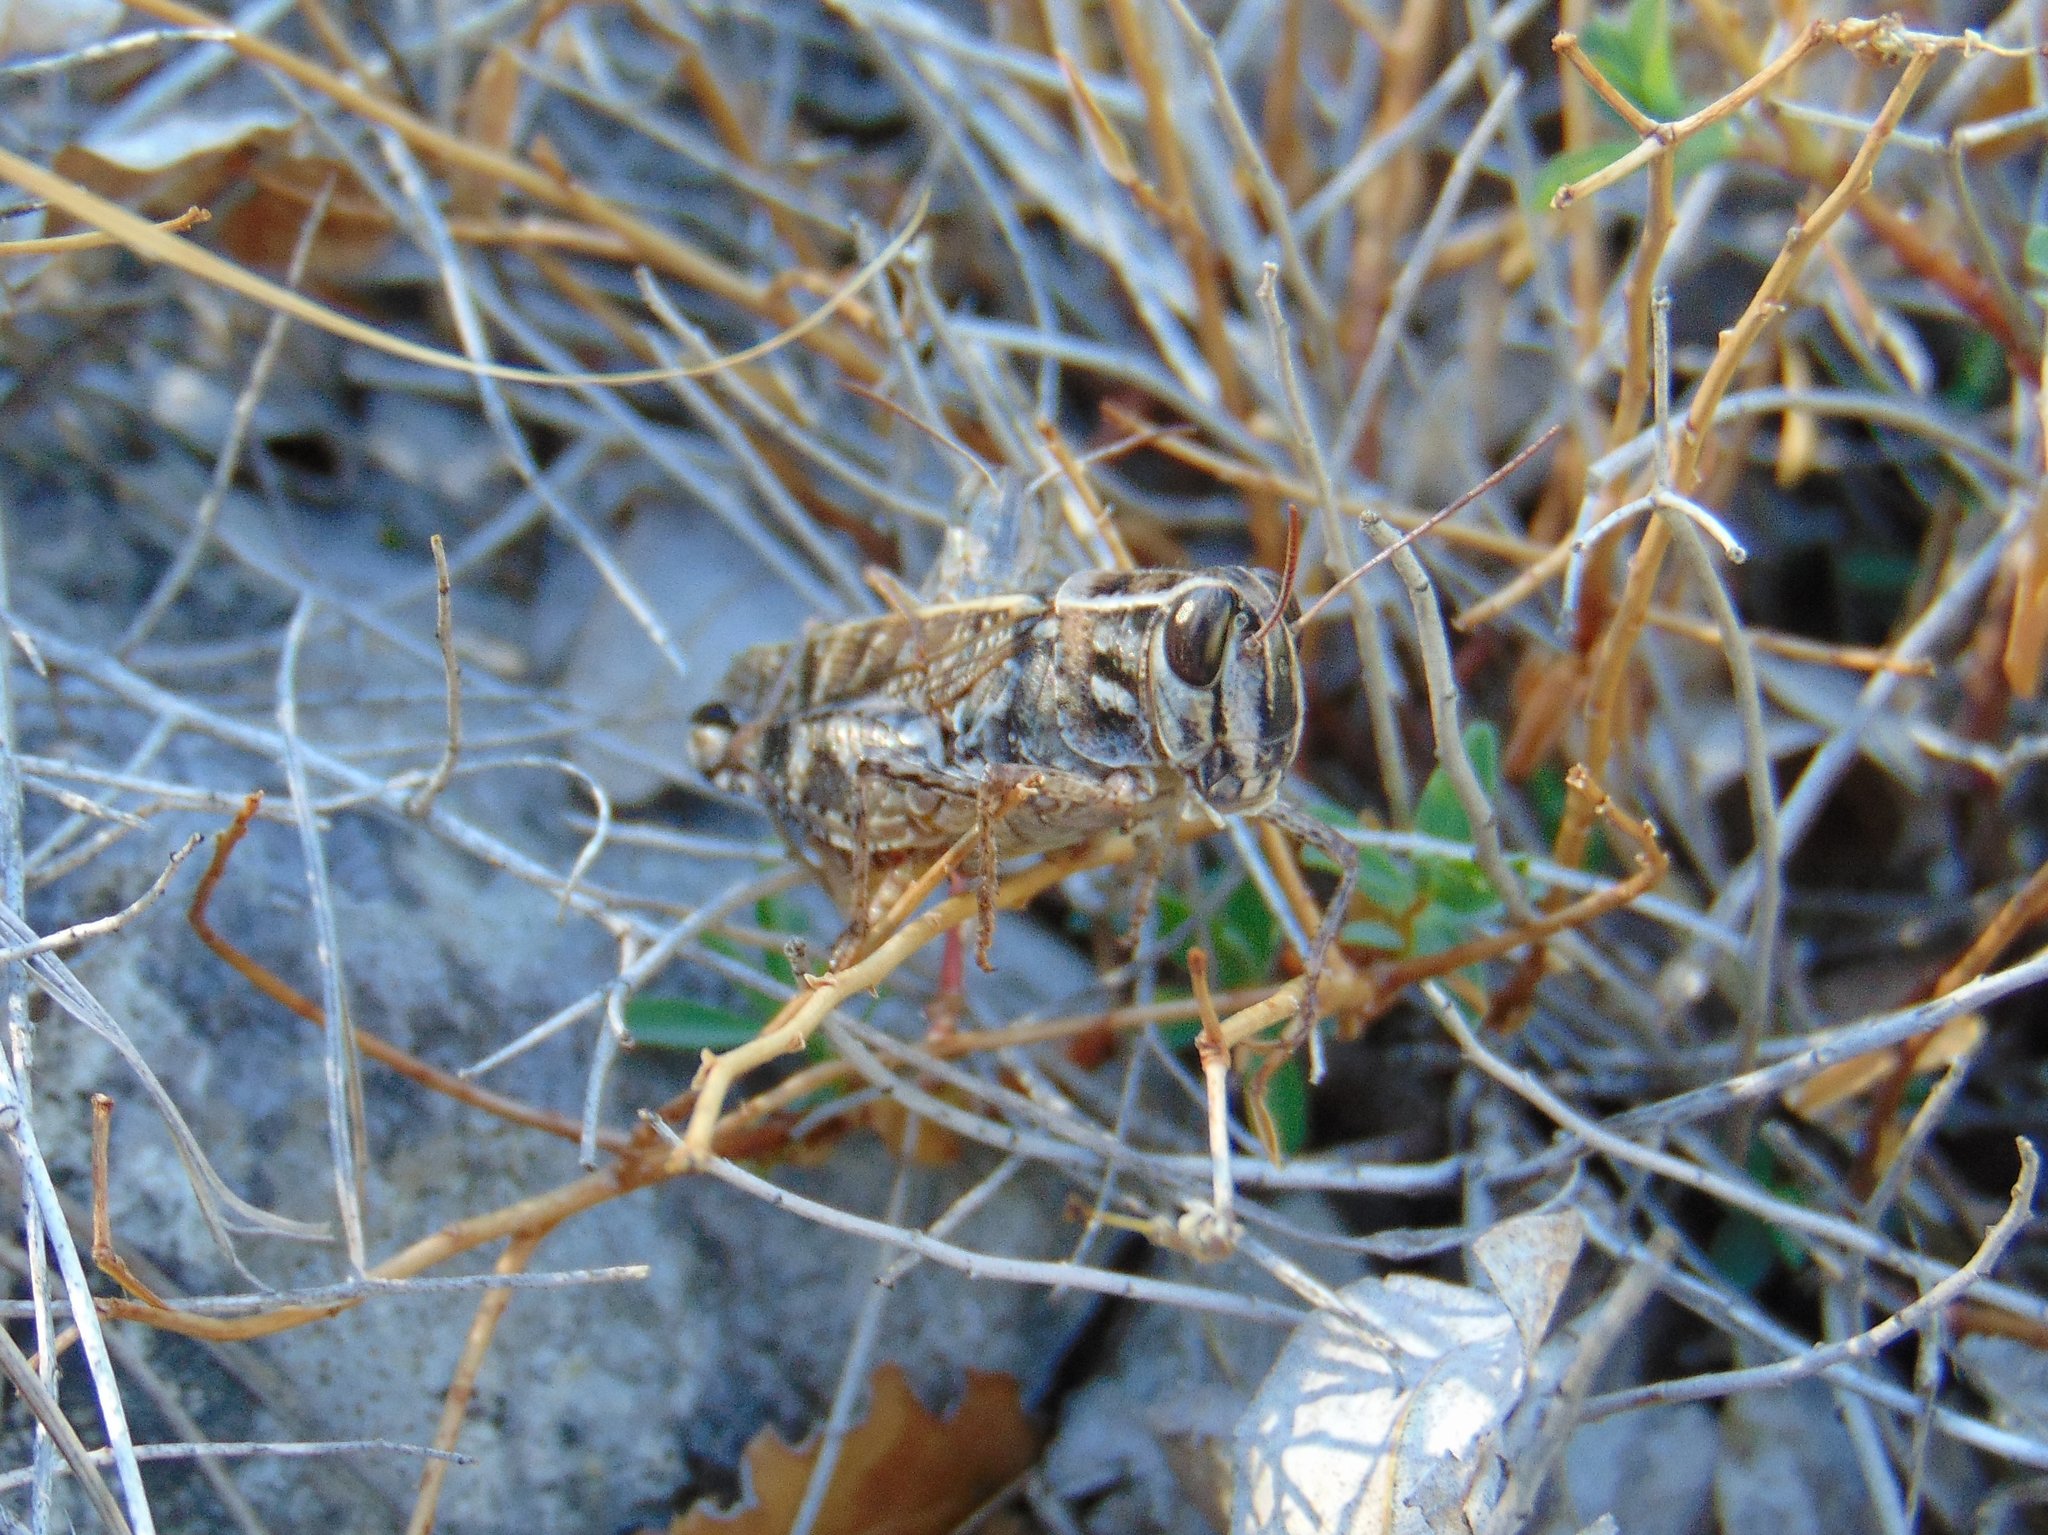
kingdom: Animalia
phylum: Arthropoda
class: Insecta
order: Orthoptera
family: Acrididae
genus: Calliptamus
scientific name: Calliptamus italicus
